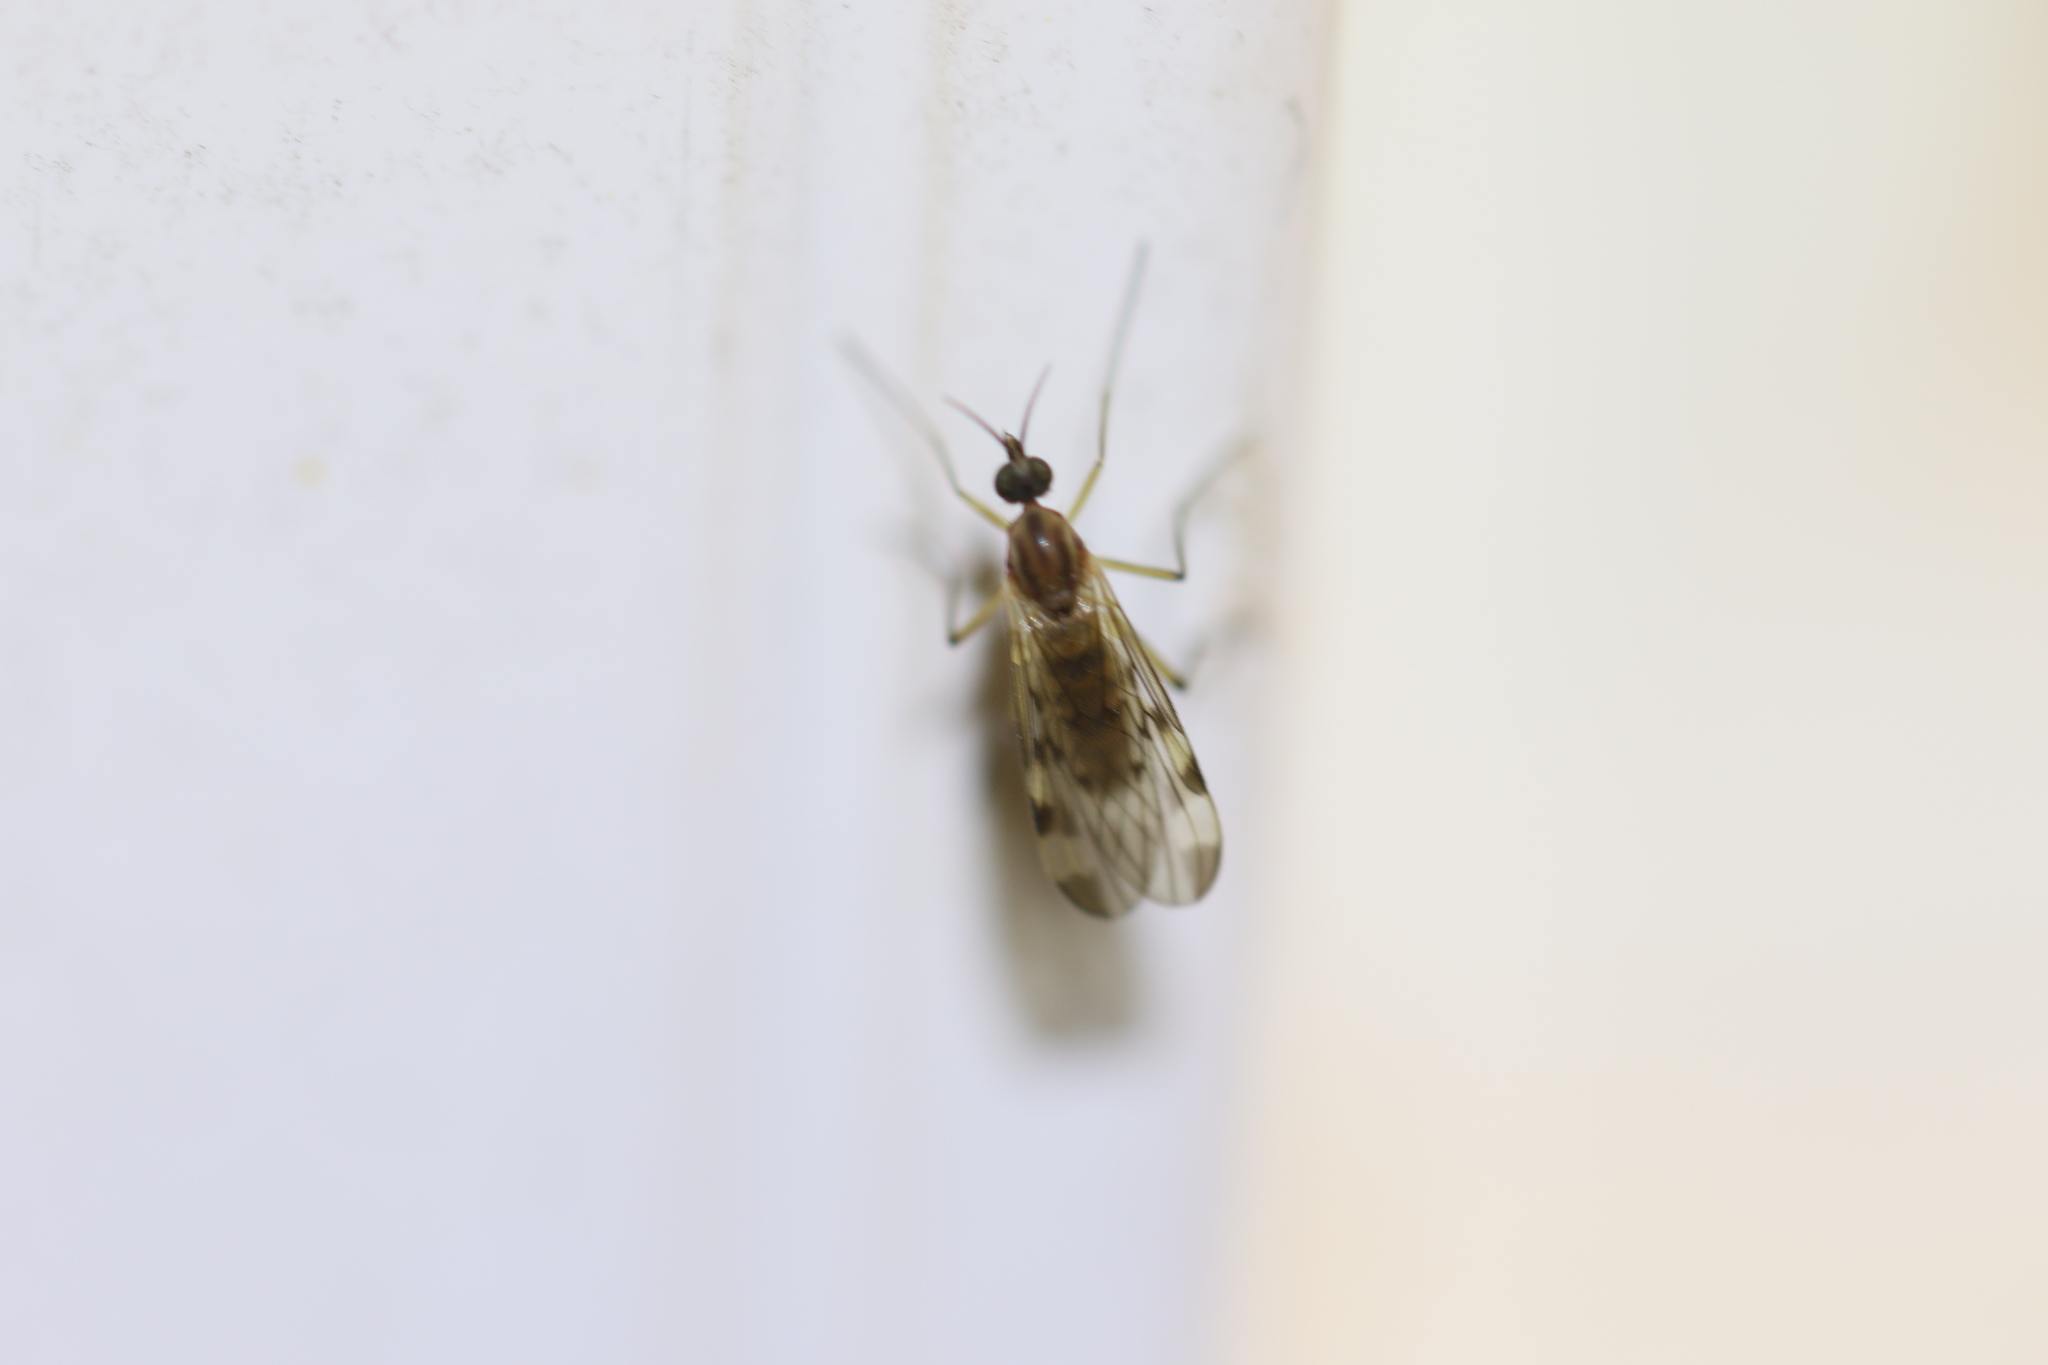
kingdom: Animalia
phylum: Arthropoda
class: Insecta
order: Diptera
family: Anisopodidae
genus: Sylvicola
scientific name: Sylvicola fenestralis
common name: Window gnat
